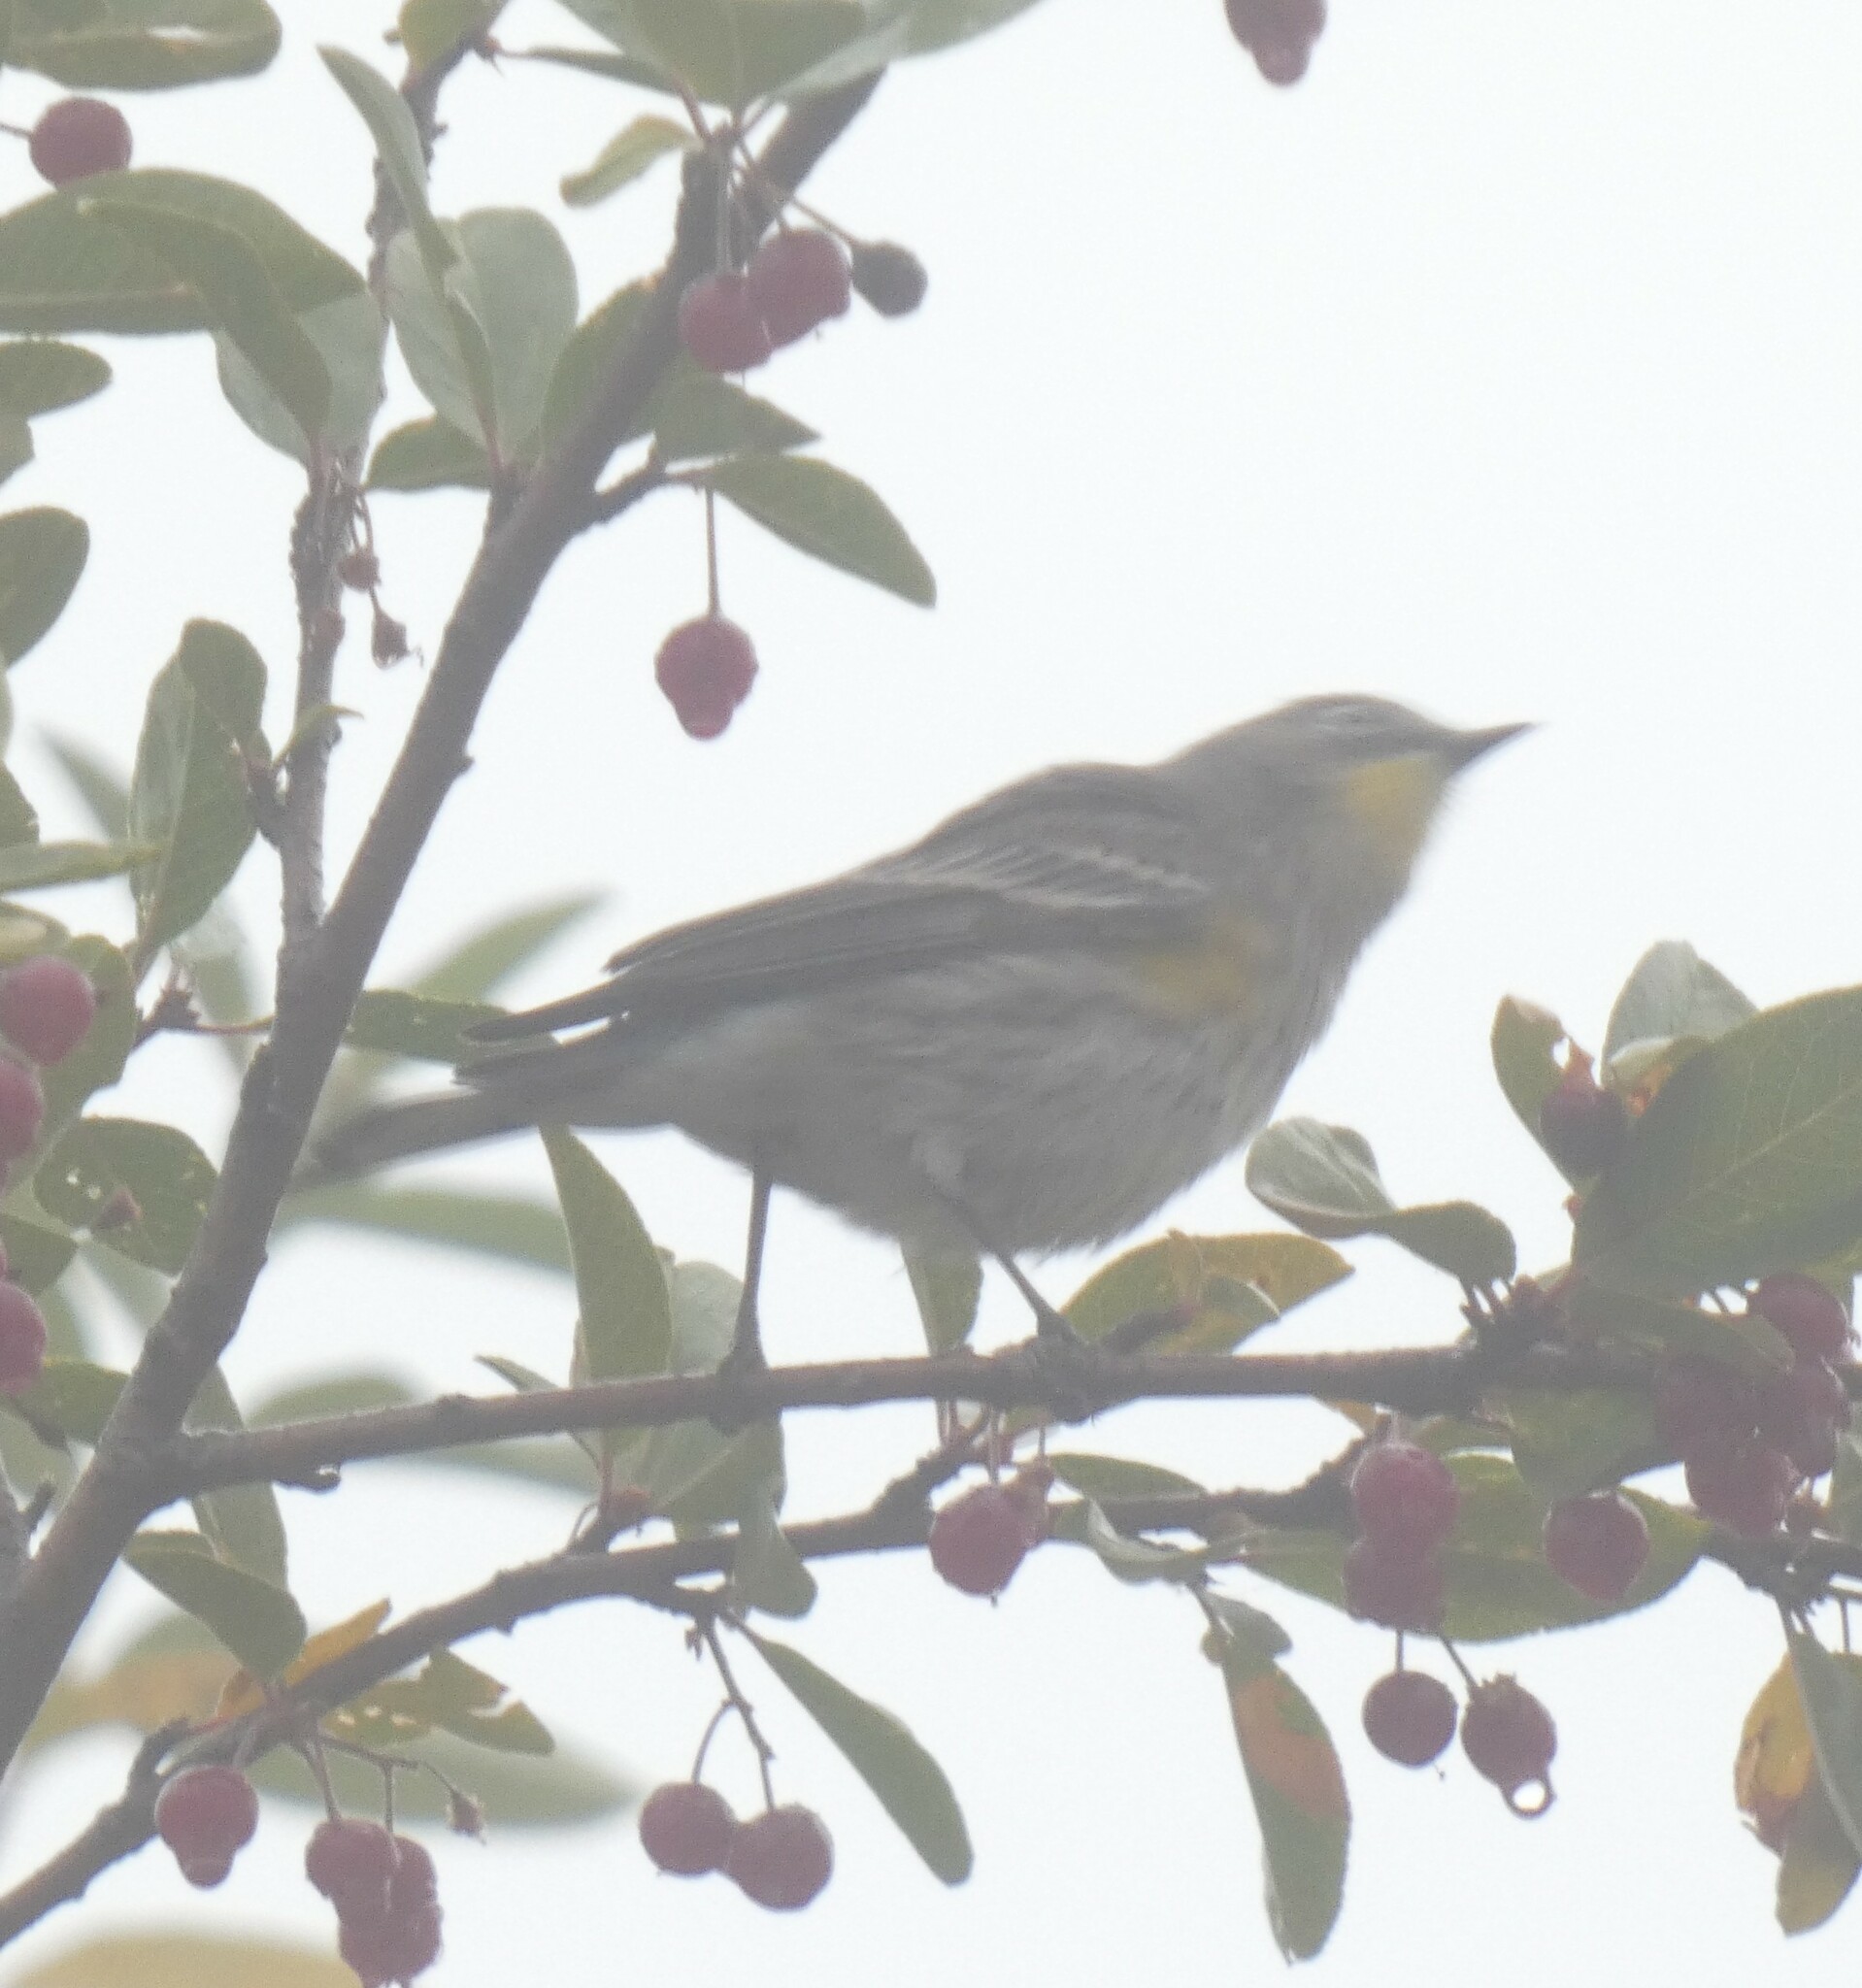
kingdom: Animalia
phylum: Chordata
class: Aves
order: Passeriformes
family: Parulidae
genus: Setophaga
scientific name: Setophaga coronata
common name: Myrtle warbler
